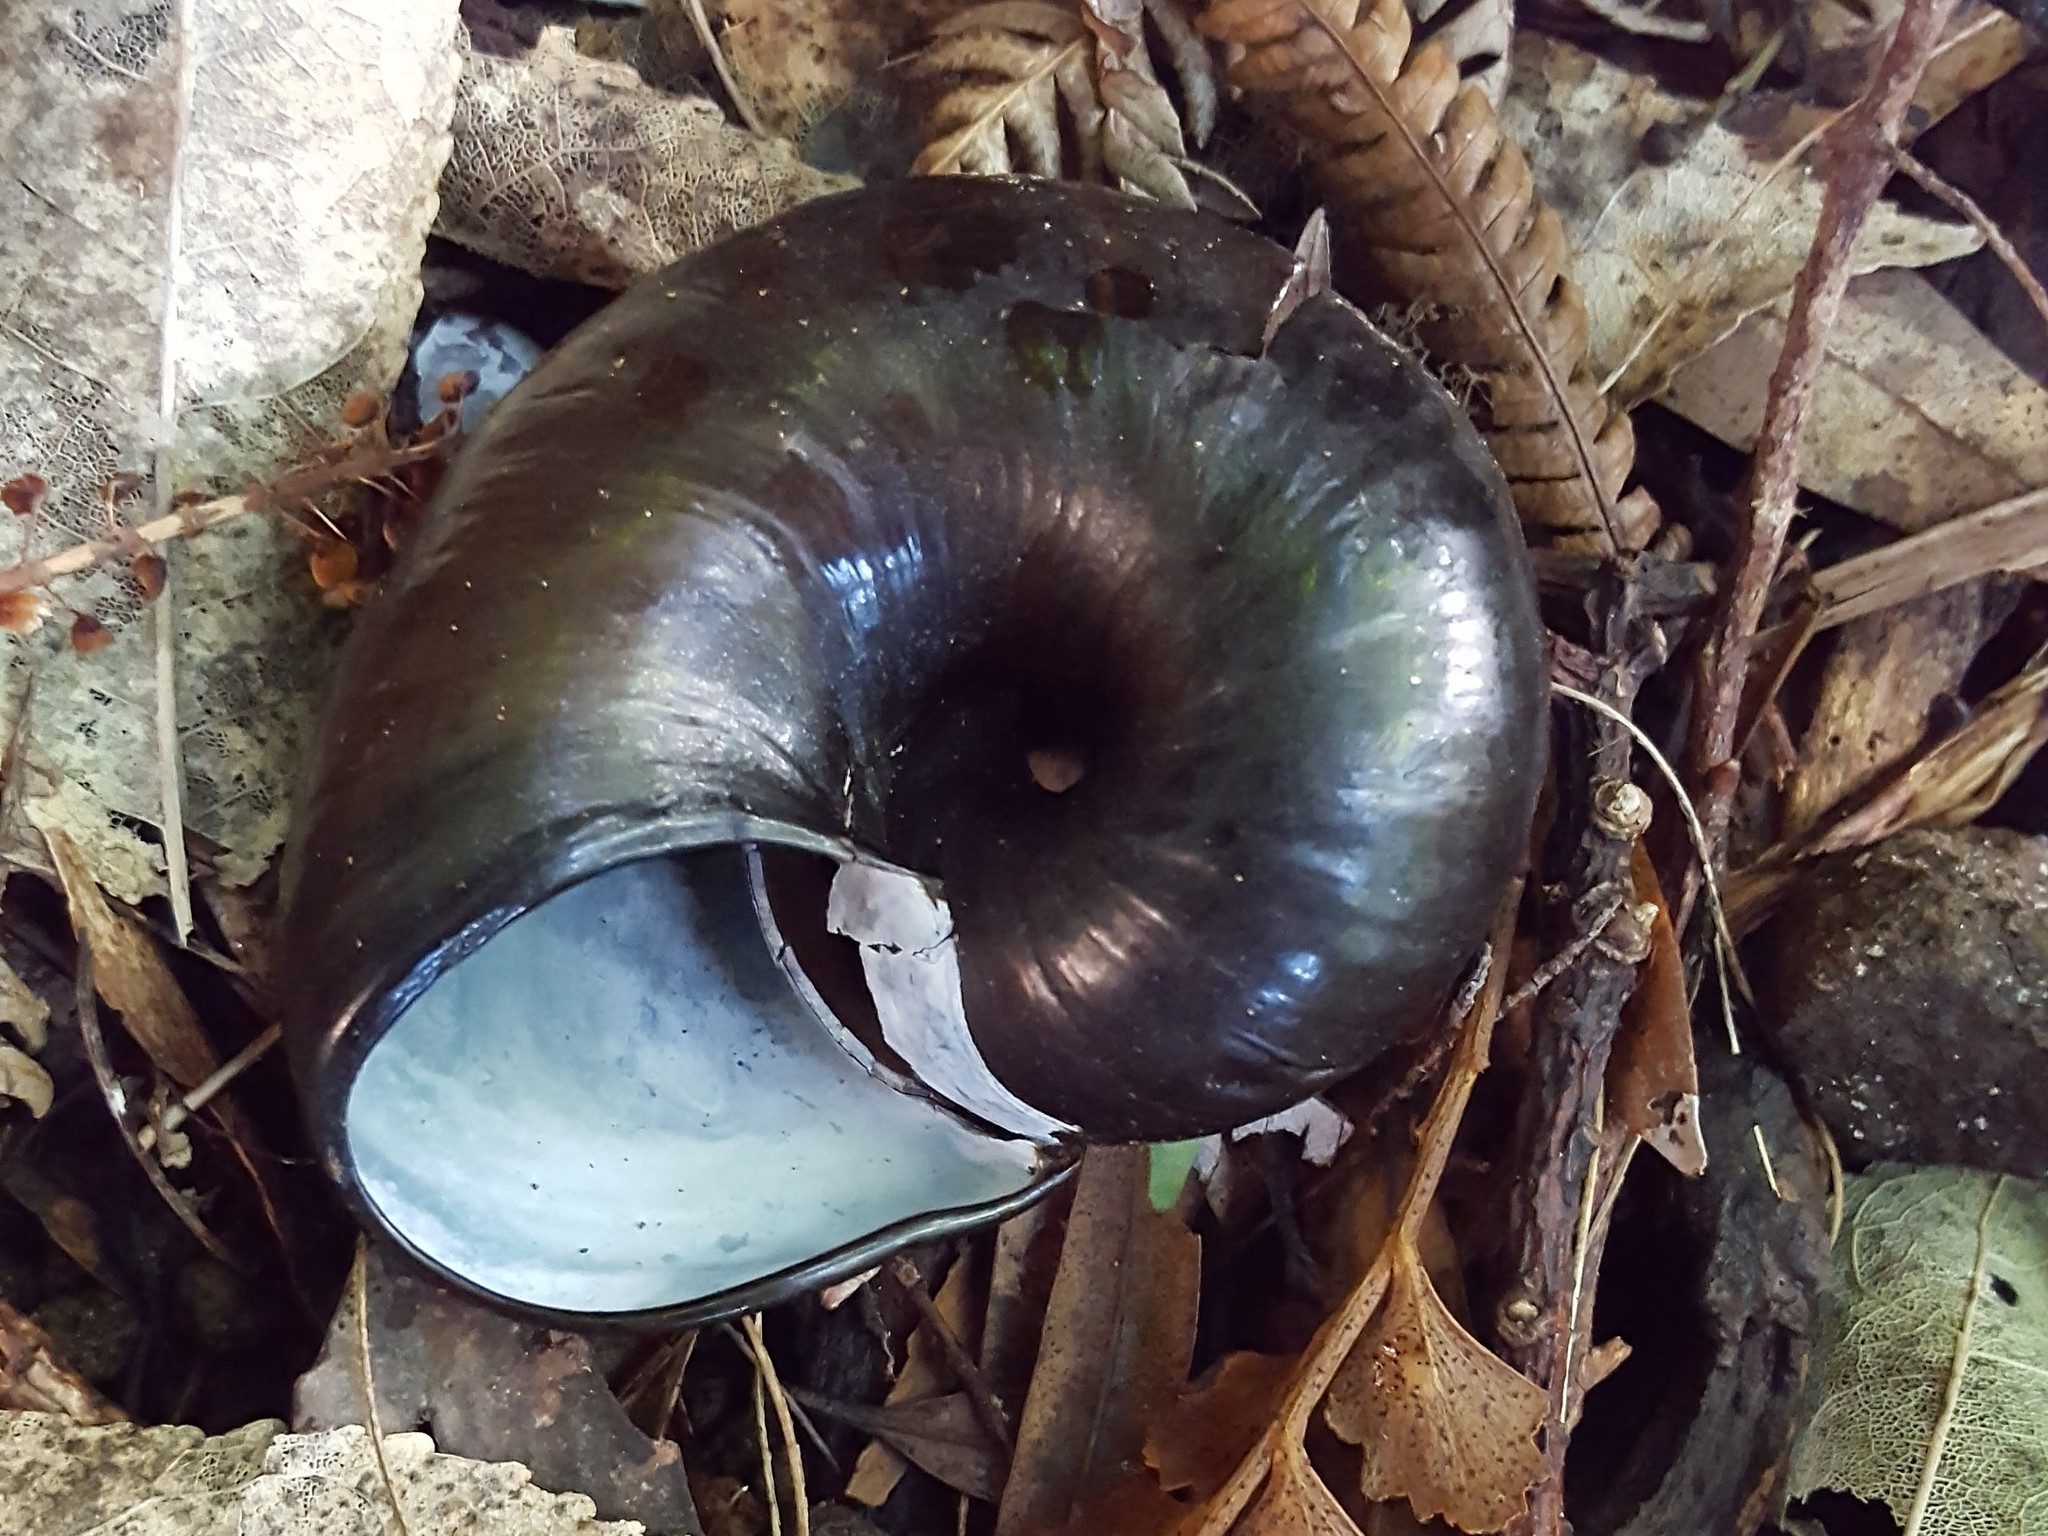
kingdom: Animalia
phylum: Mollusca
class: Gastropoda
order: Stylommatophora
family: Rhytididae
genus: Paryphanta
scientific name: Paryphanta busbyi
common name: Kauri snail
